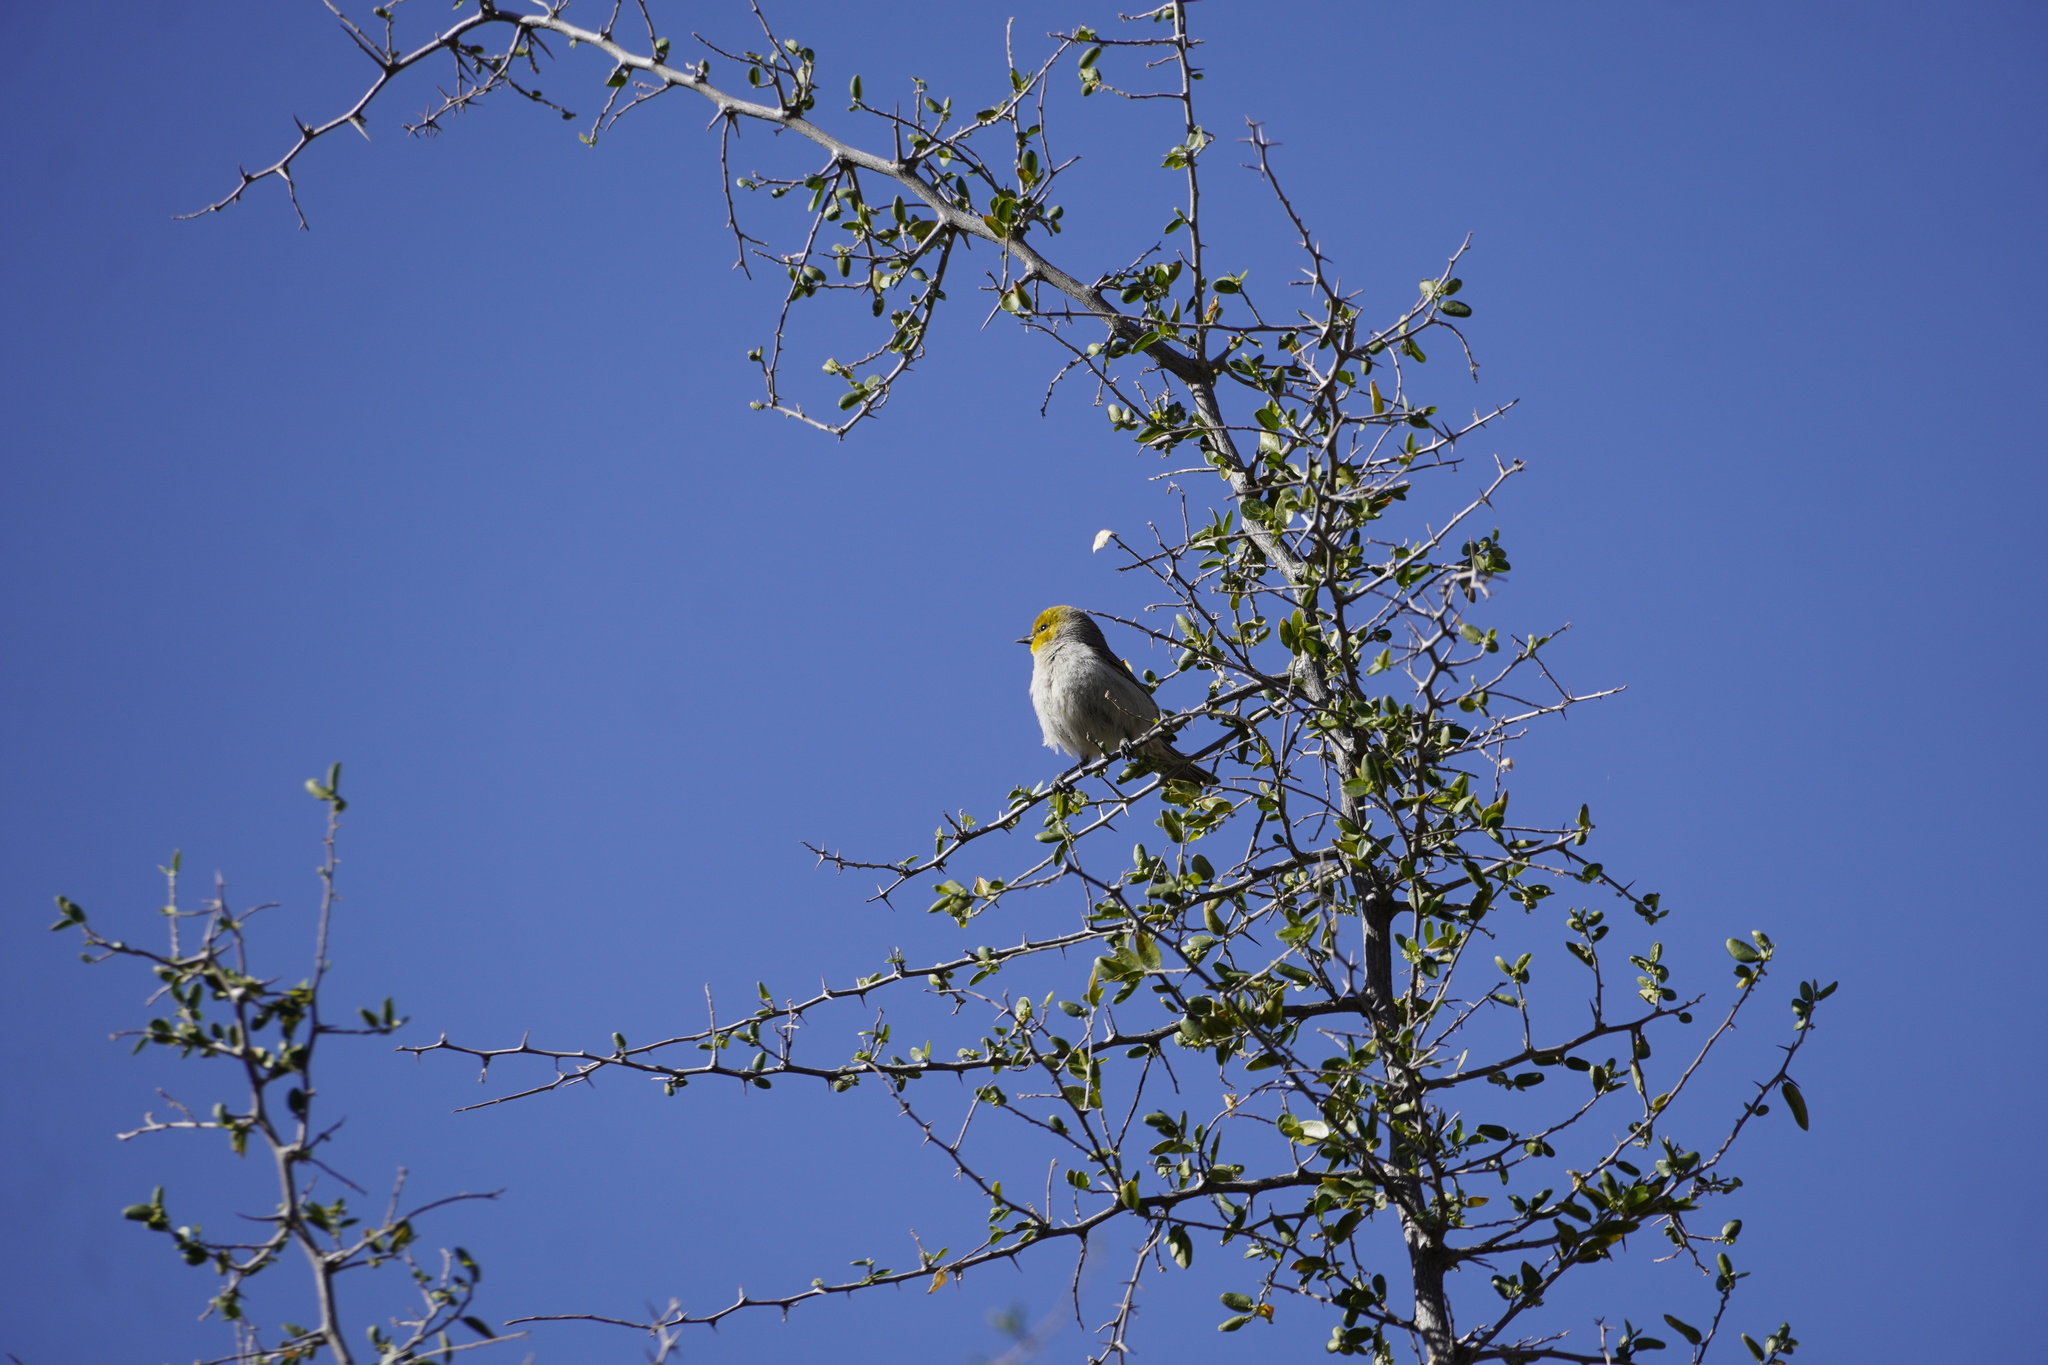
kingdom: Animalia
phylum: Chordata
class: Aves
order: Passeriformes
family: Remizidae
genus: Auriparus
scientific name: Auriparus flaviceps
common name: Verdin
